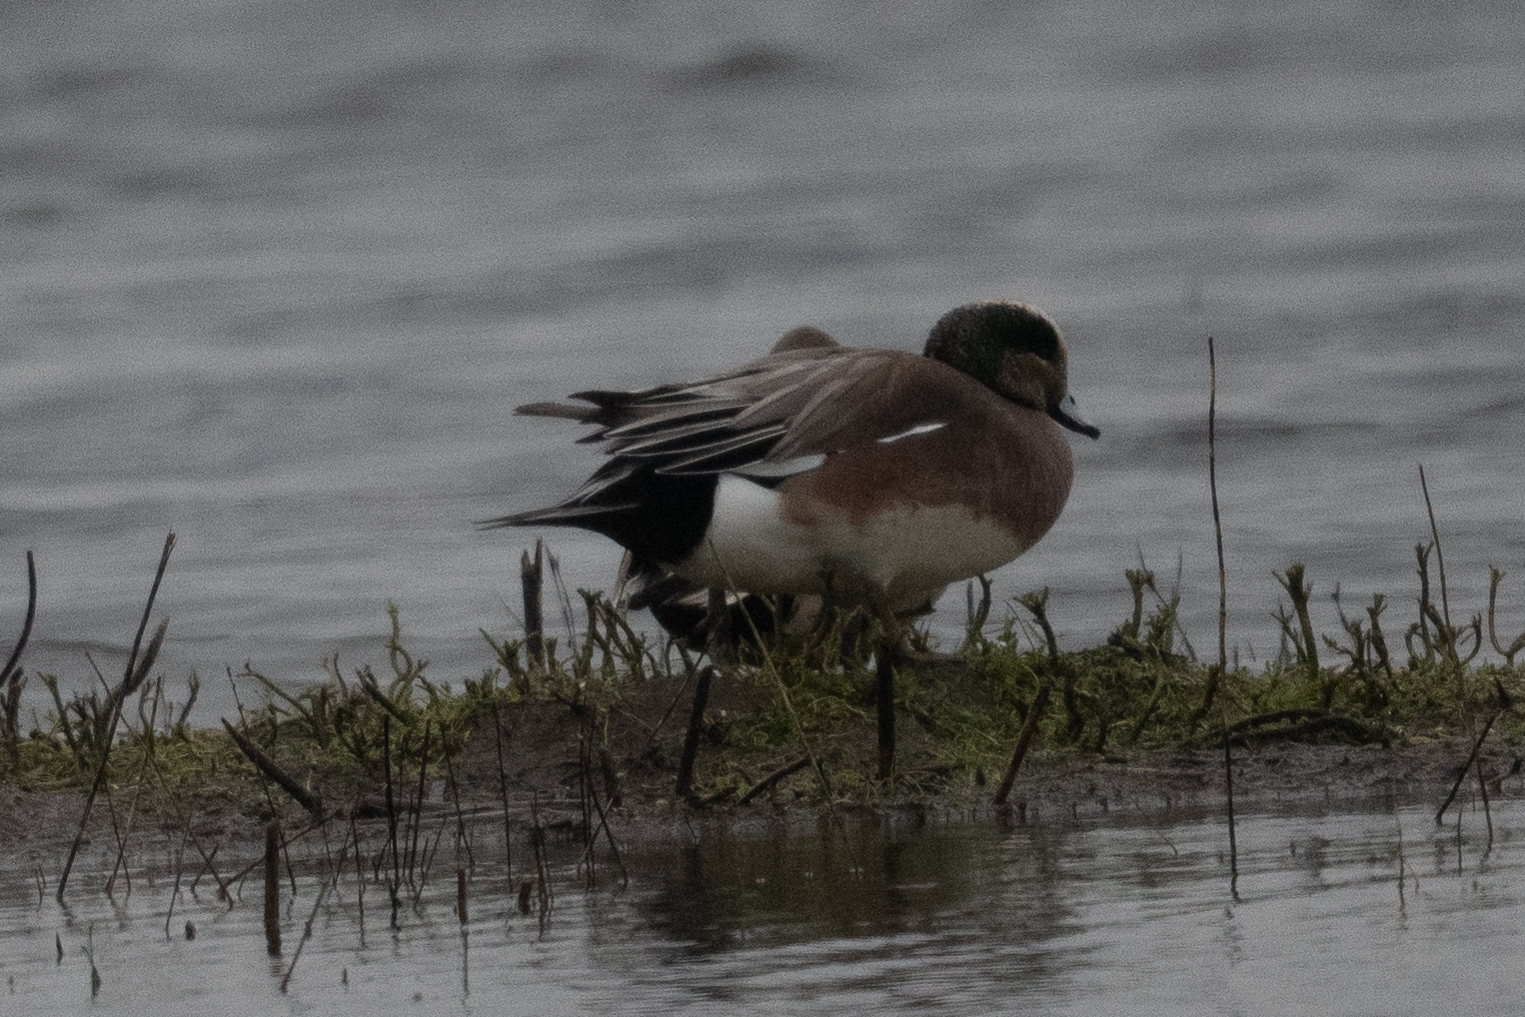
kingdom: Animalia
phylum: Chordata
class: Aves
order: Anseriformes
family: Anatidae
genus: Mareca
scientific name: Mareca americana
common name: American wigeon
